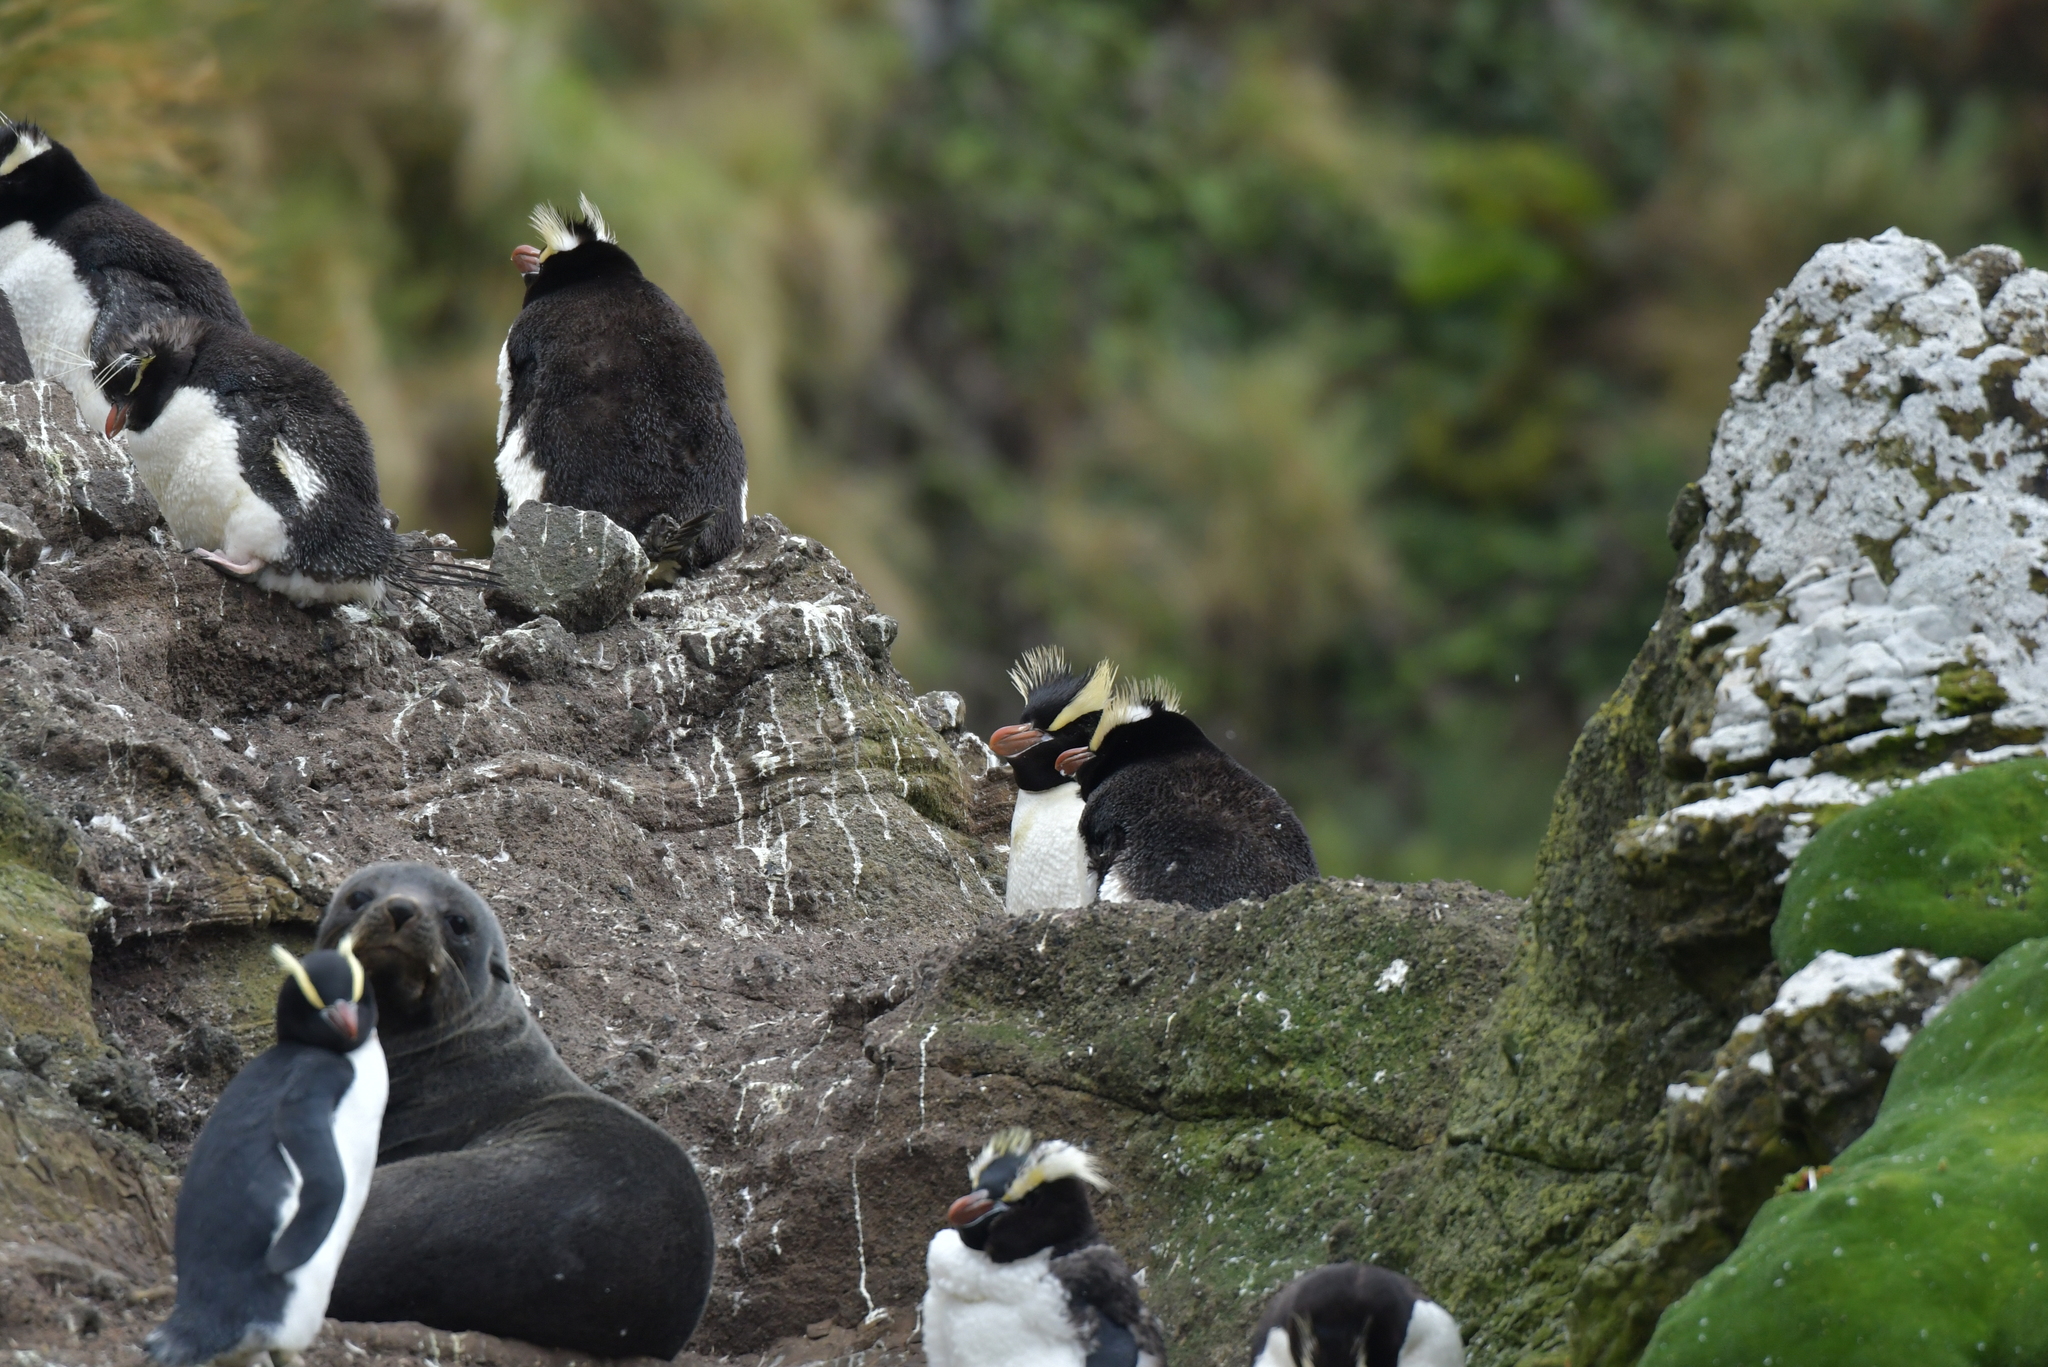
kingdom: Animalia
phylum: Chordata
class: Aves
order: Sphenisciformes
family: Spheniscidae
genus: Eudyptes
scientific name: Eudyptes sclateri
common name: Erect-crested penguin
